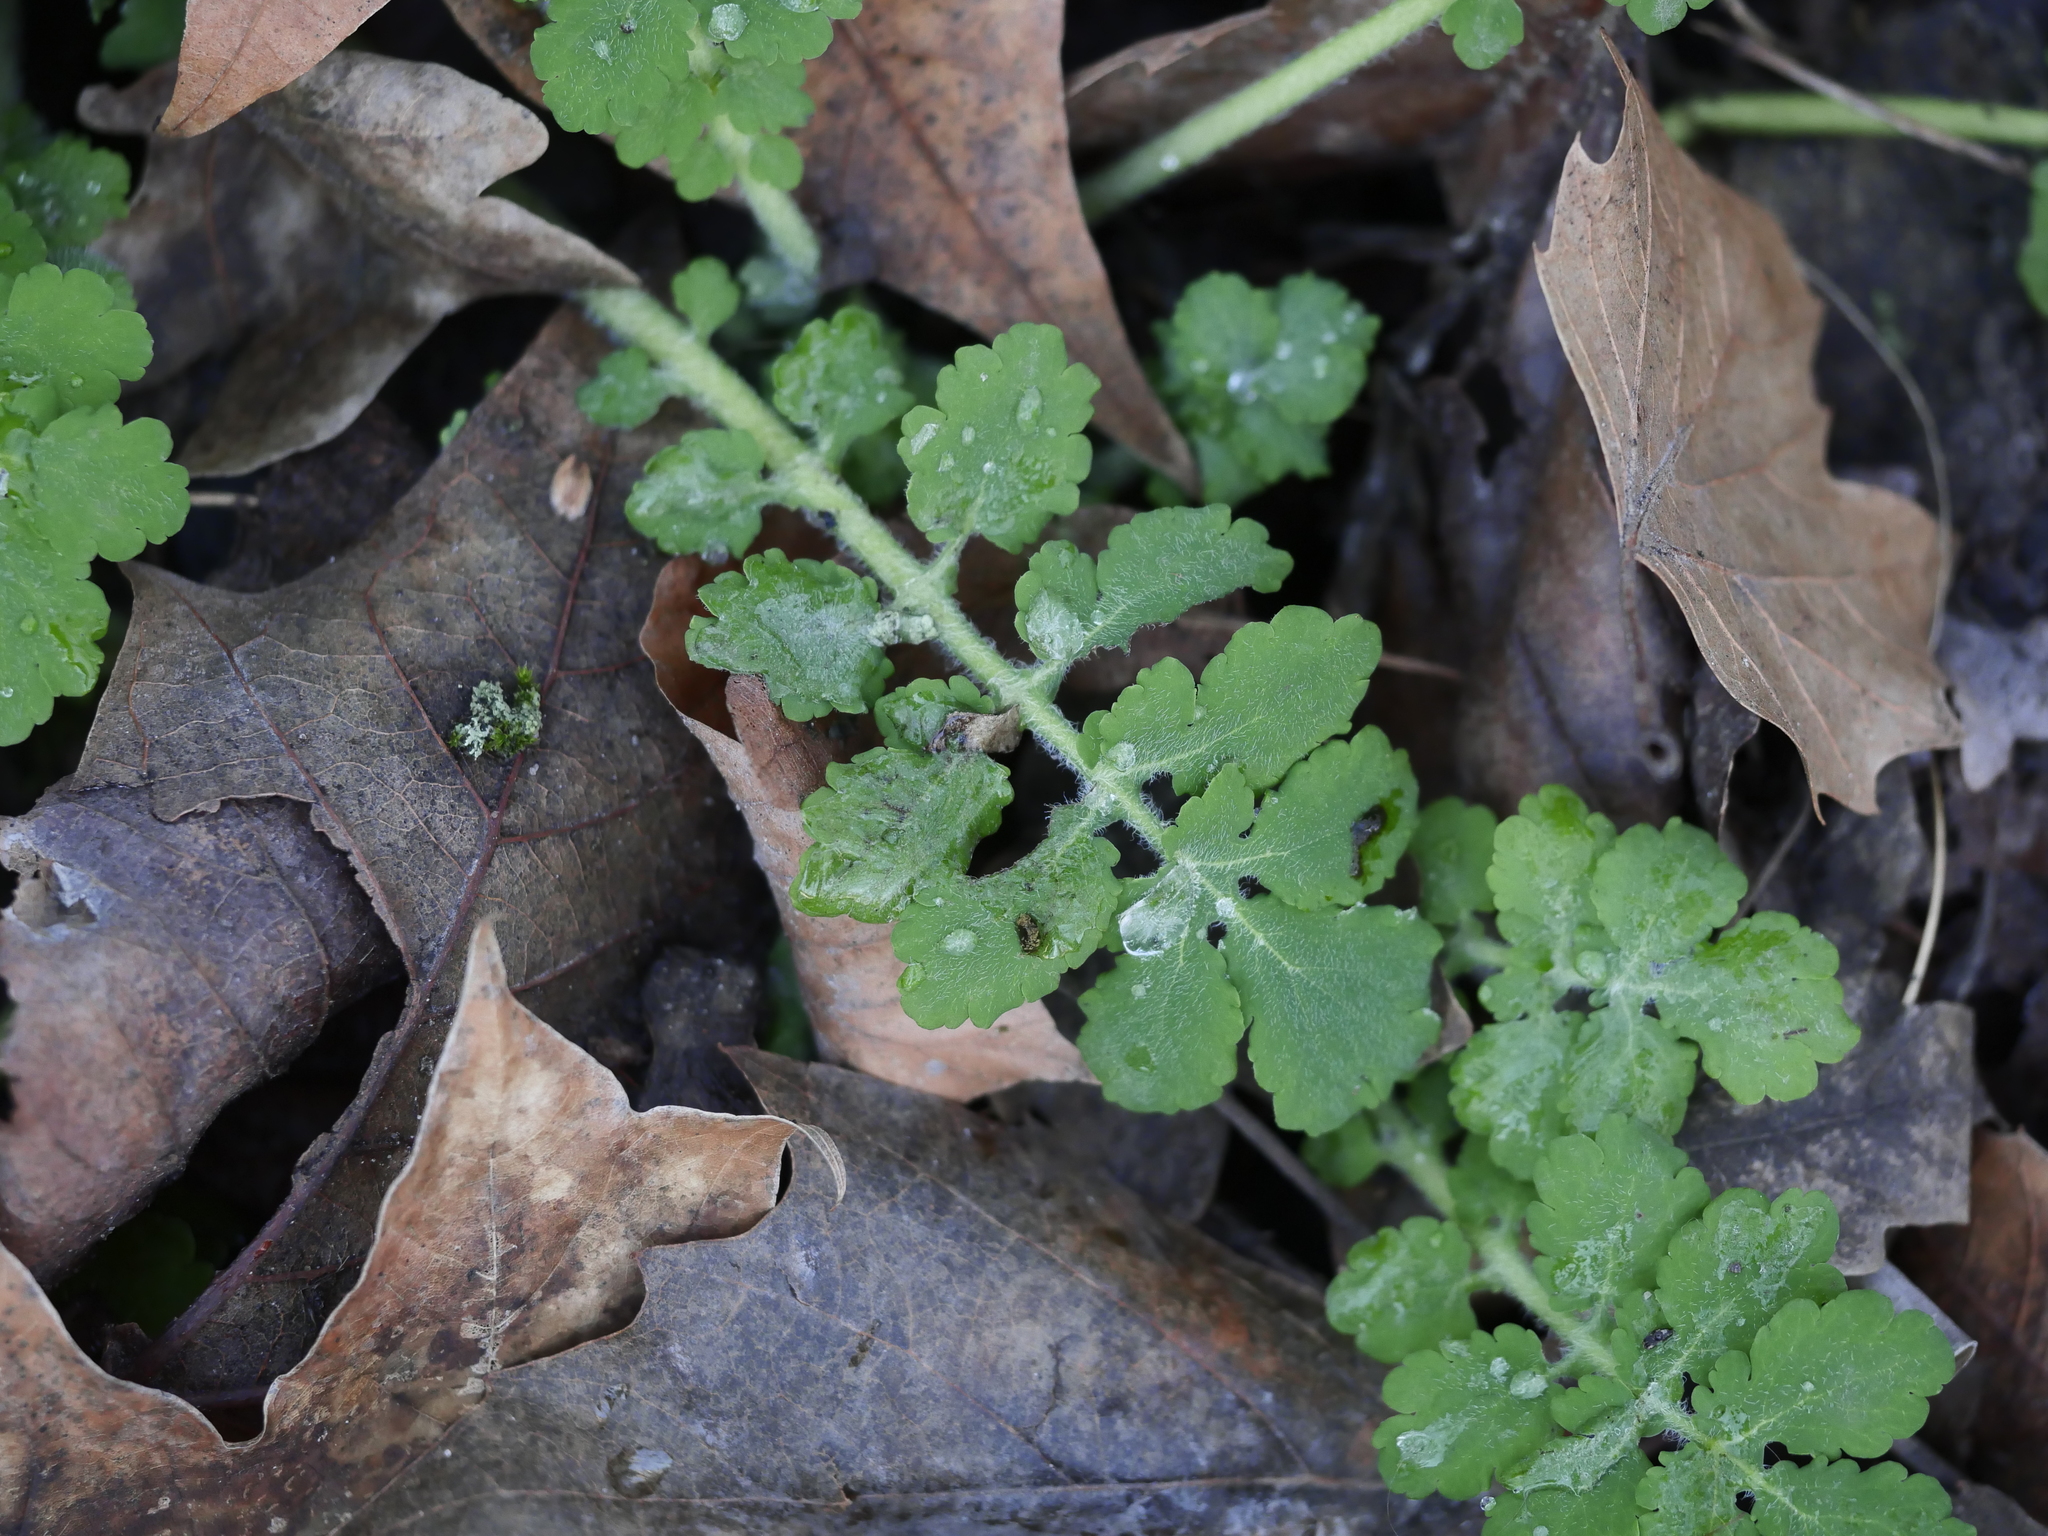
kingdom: Plantae
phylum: Tracheophyta
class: Magnoliopsida
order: Ranunculales
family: Papaveraceae
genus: Chelidonium
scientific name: Chelidonium majus
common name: Greater celandine
